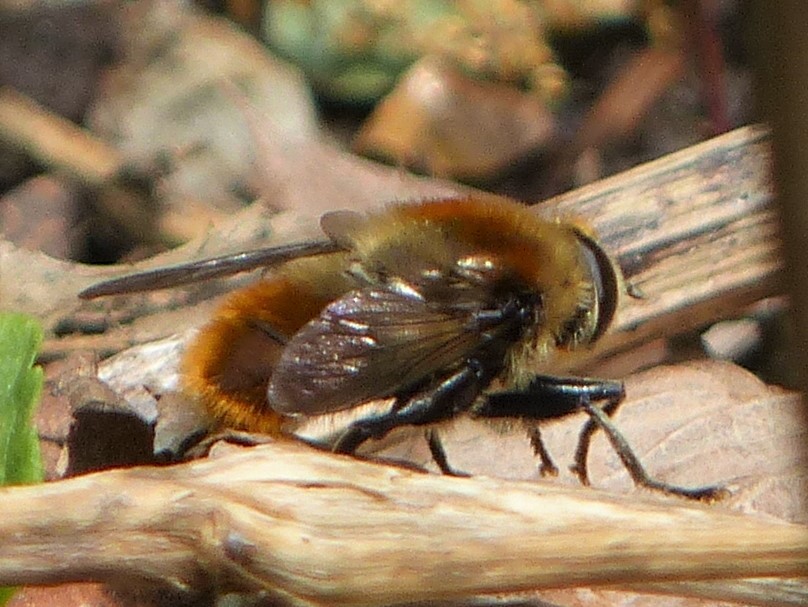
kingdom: Animalia
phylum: Arthropoda
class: Insecta
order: Diptera
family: Syrphidae
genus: Merodon
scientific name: Merodon equestris
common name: Greater bulb-fly
